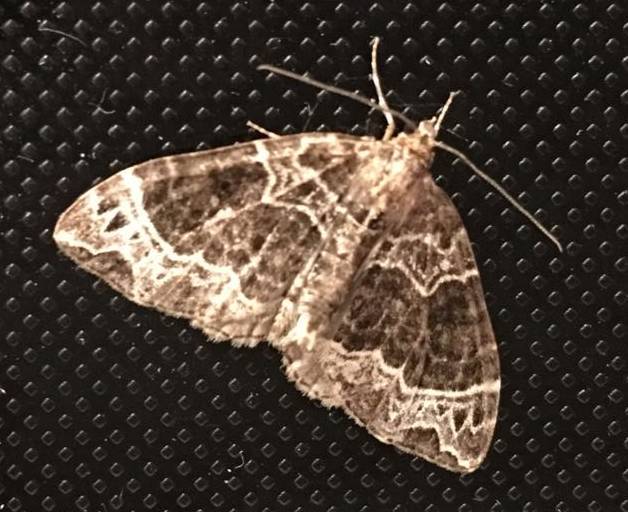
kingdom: Animalia
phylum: Arthropoda
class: Insecta
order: Lepidoptera
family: Geometridae
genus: Ecliptopera
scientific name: Ecliptopera silaceata
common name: Small phoenix
